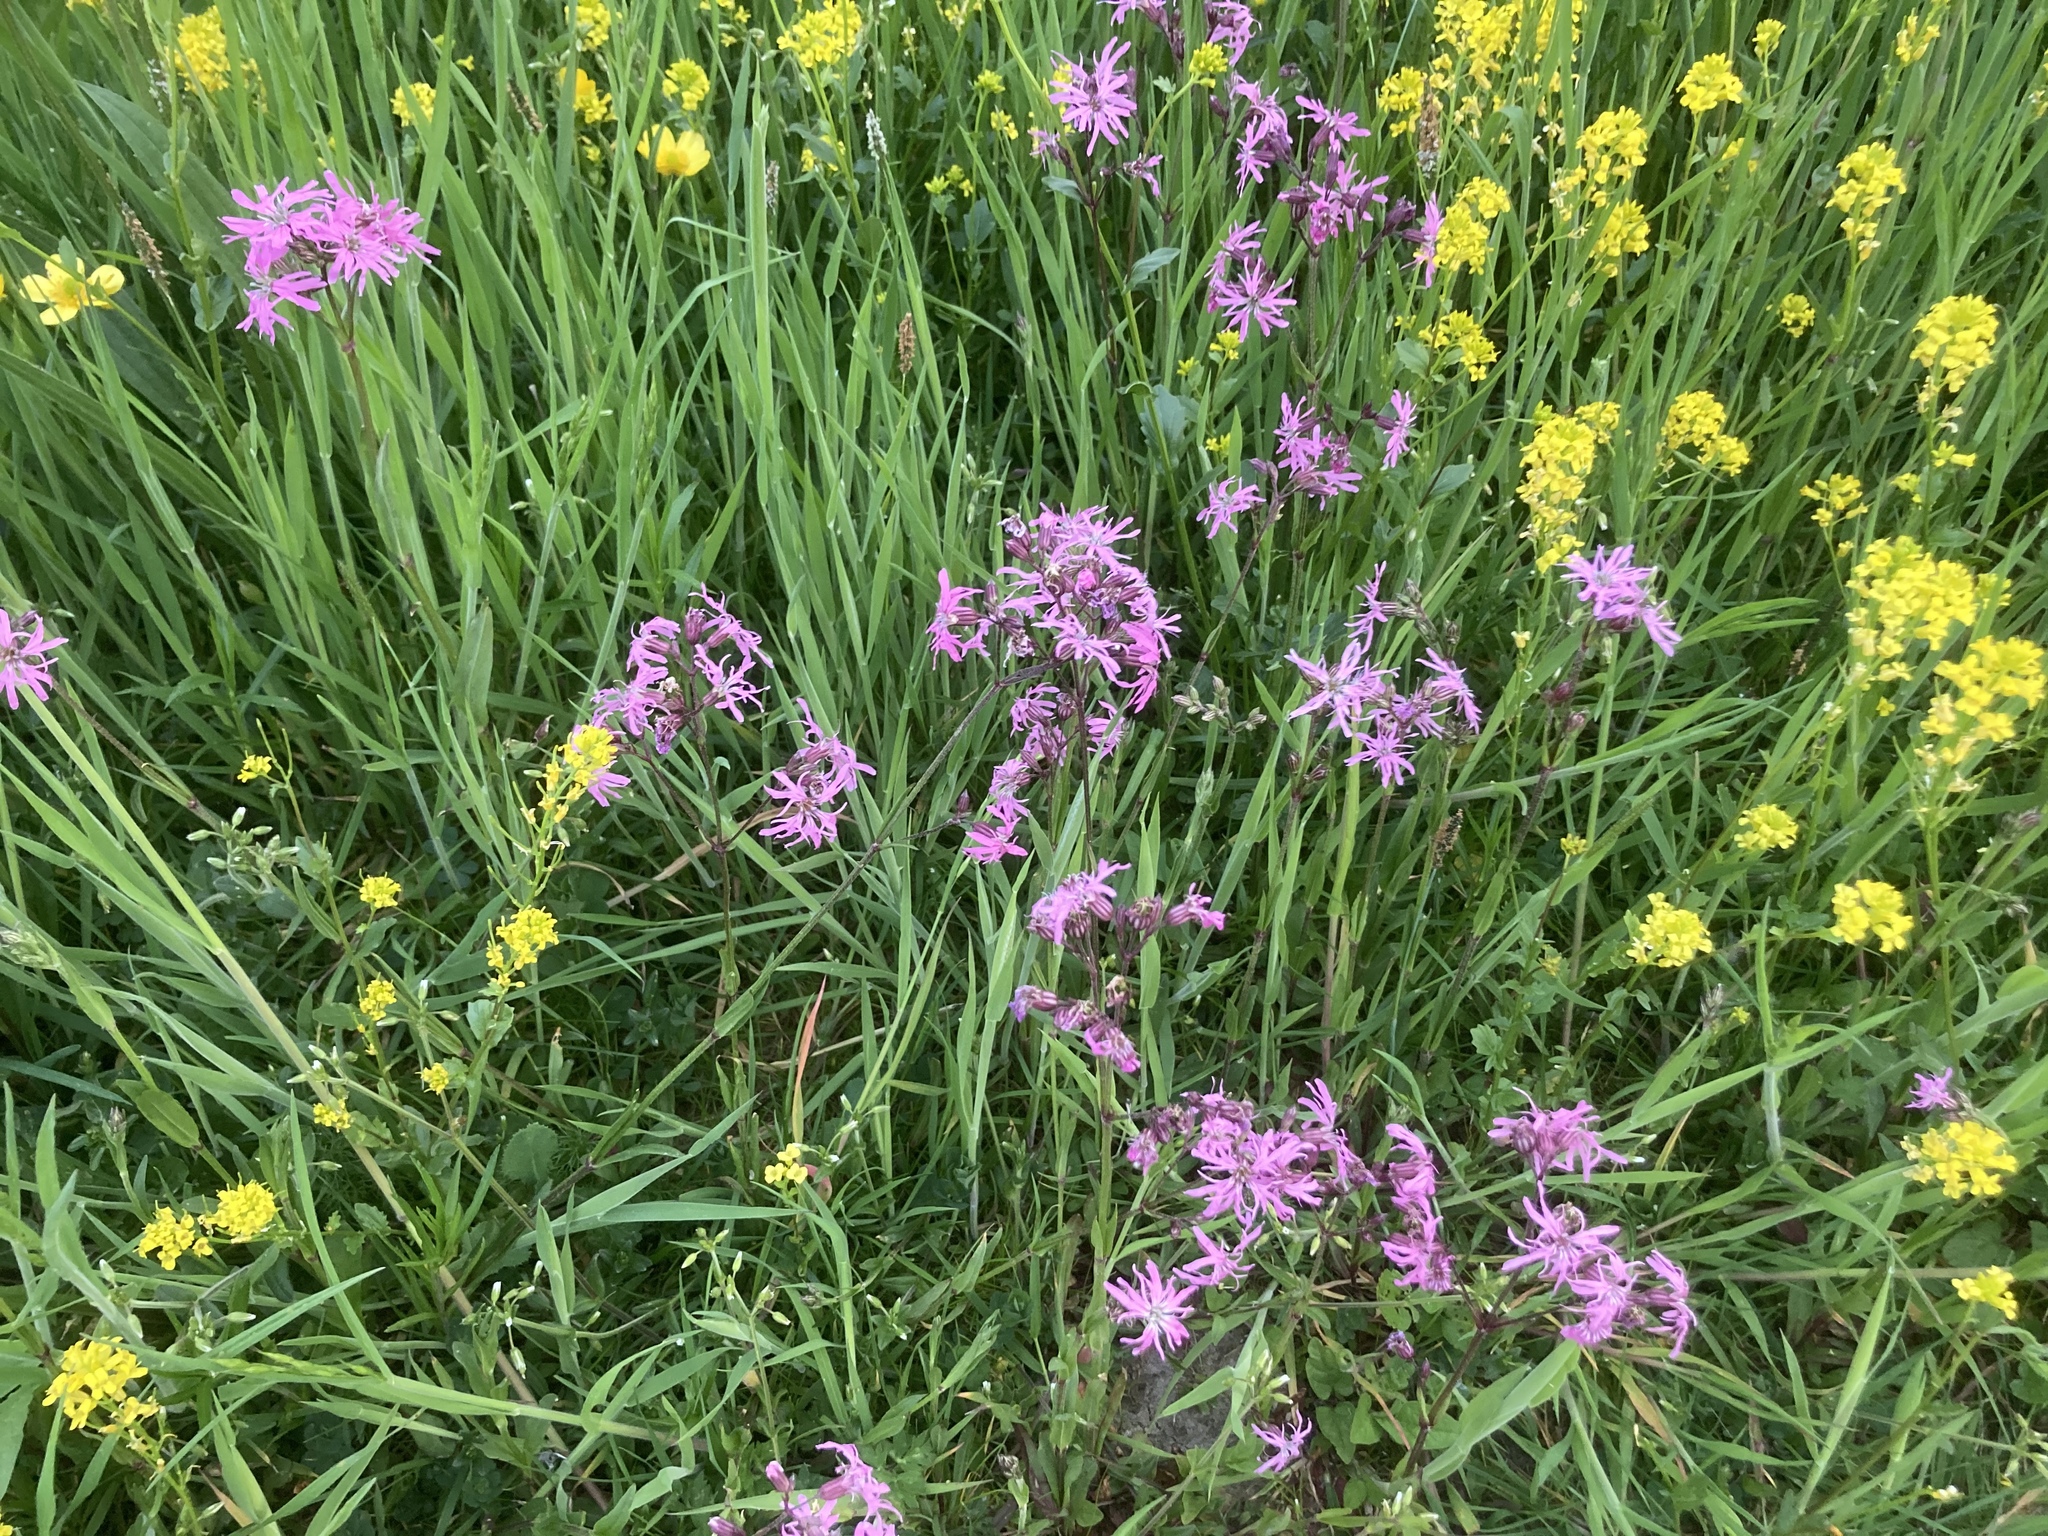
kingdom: Plantae
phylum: Tracheophyta
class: Magnoliopsida
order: Caryophyllales
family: Caryophyllaceae
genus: Silene
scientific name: Silene flos-cuculi
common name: Ragged-robin
